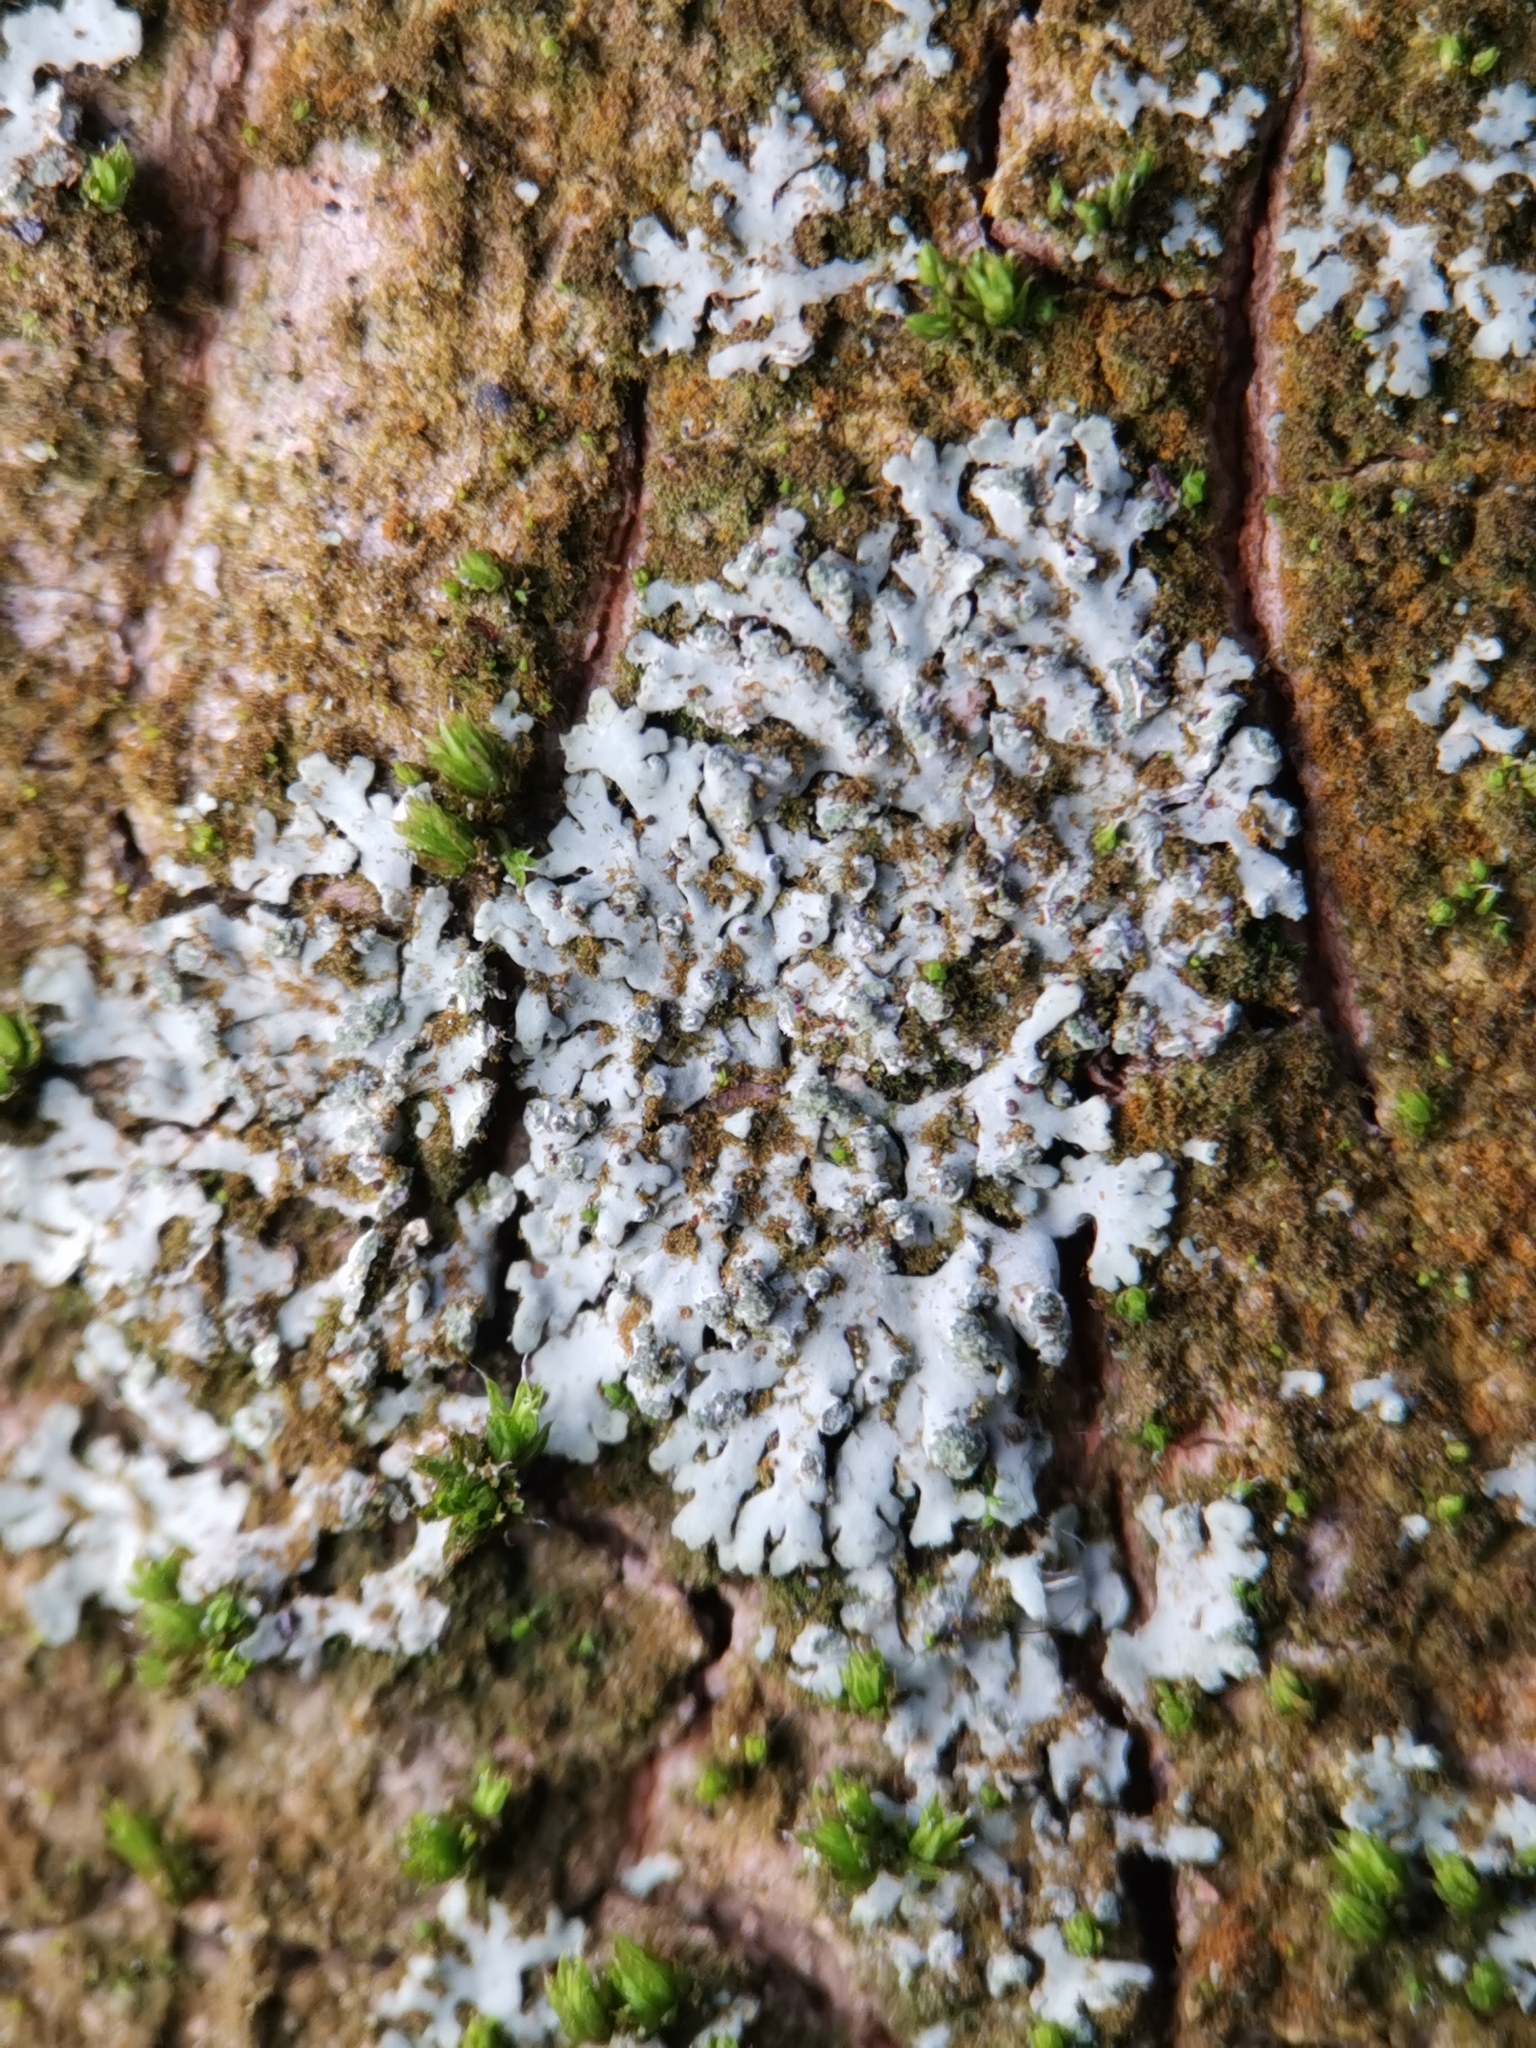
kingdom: Fungi
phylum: Ascomycota
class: Lecanoromycetes
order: Caliciales
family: Physciaceae
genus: Phaeophyscia
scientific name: Phaeophyscia orbicularis
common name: Mealy shadow lichen
